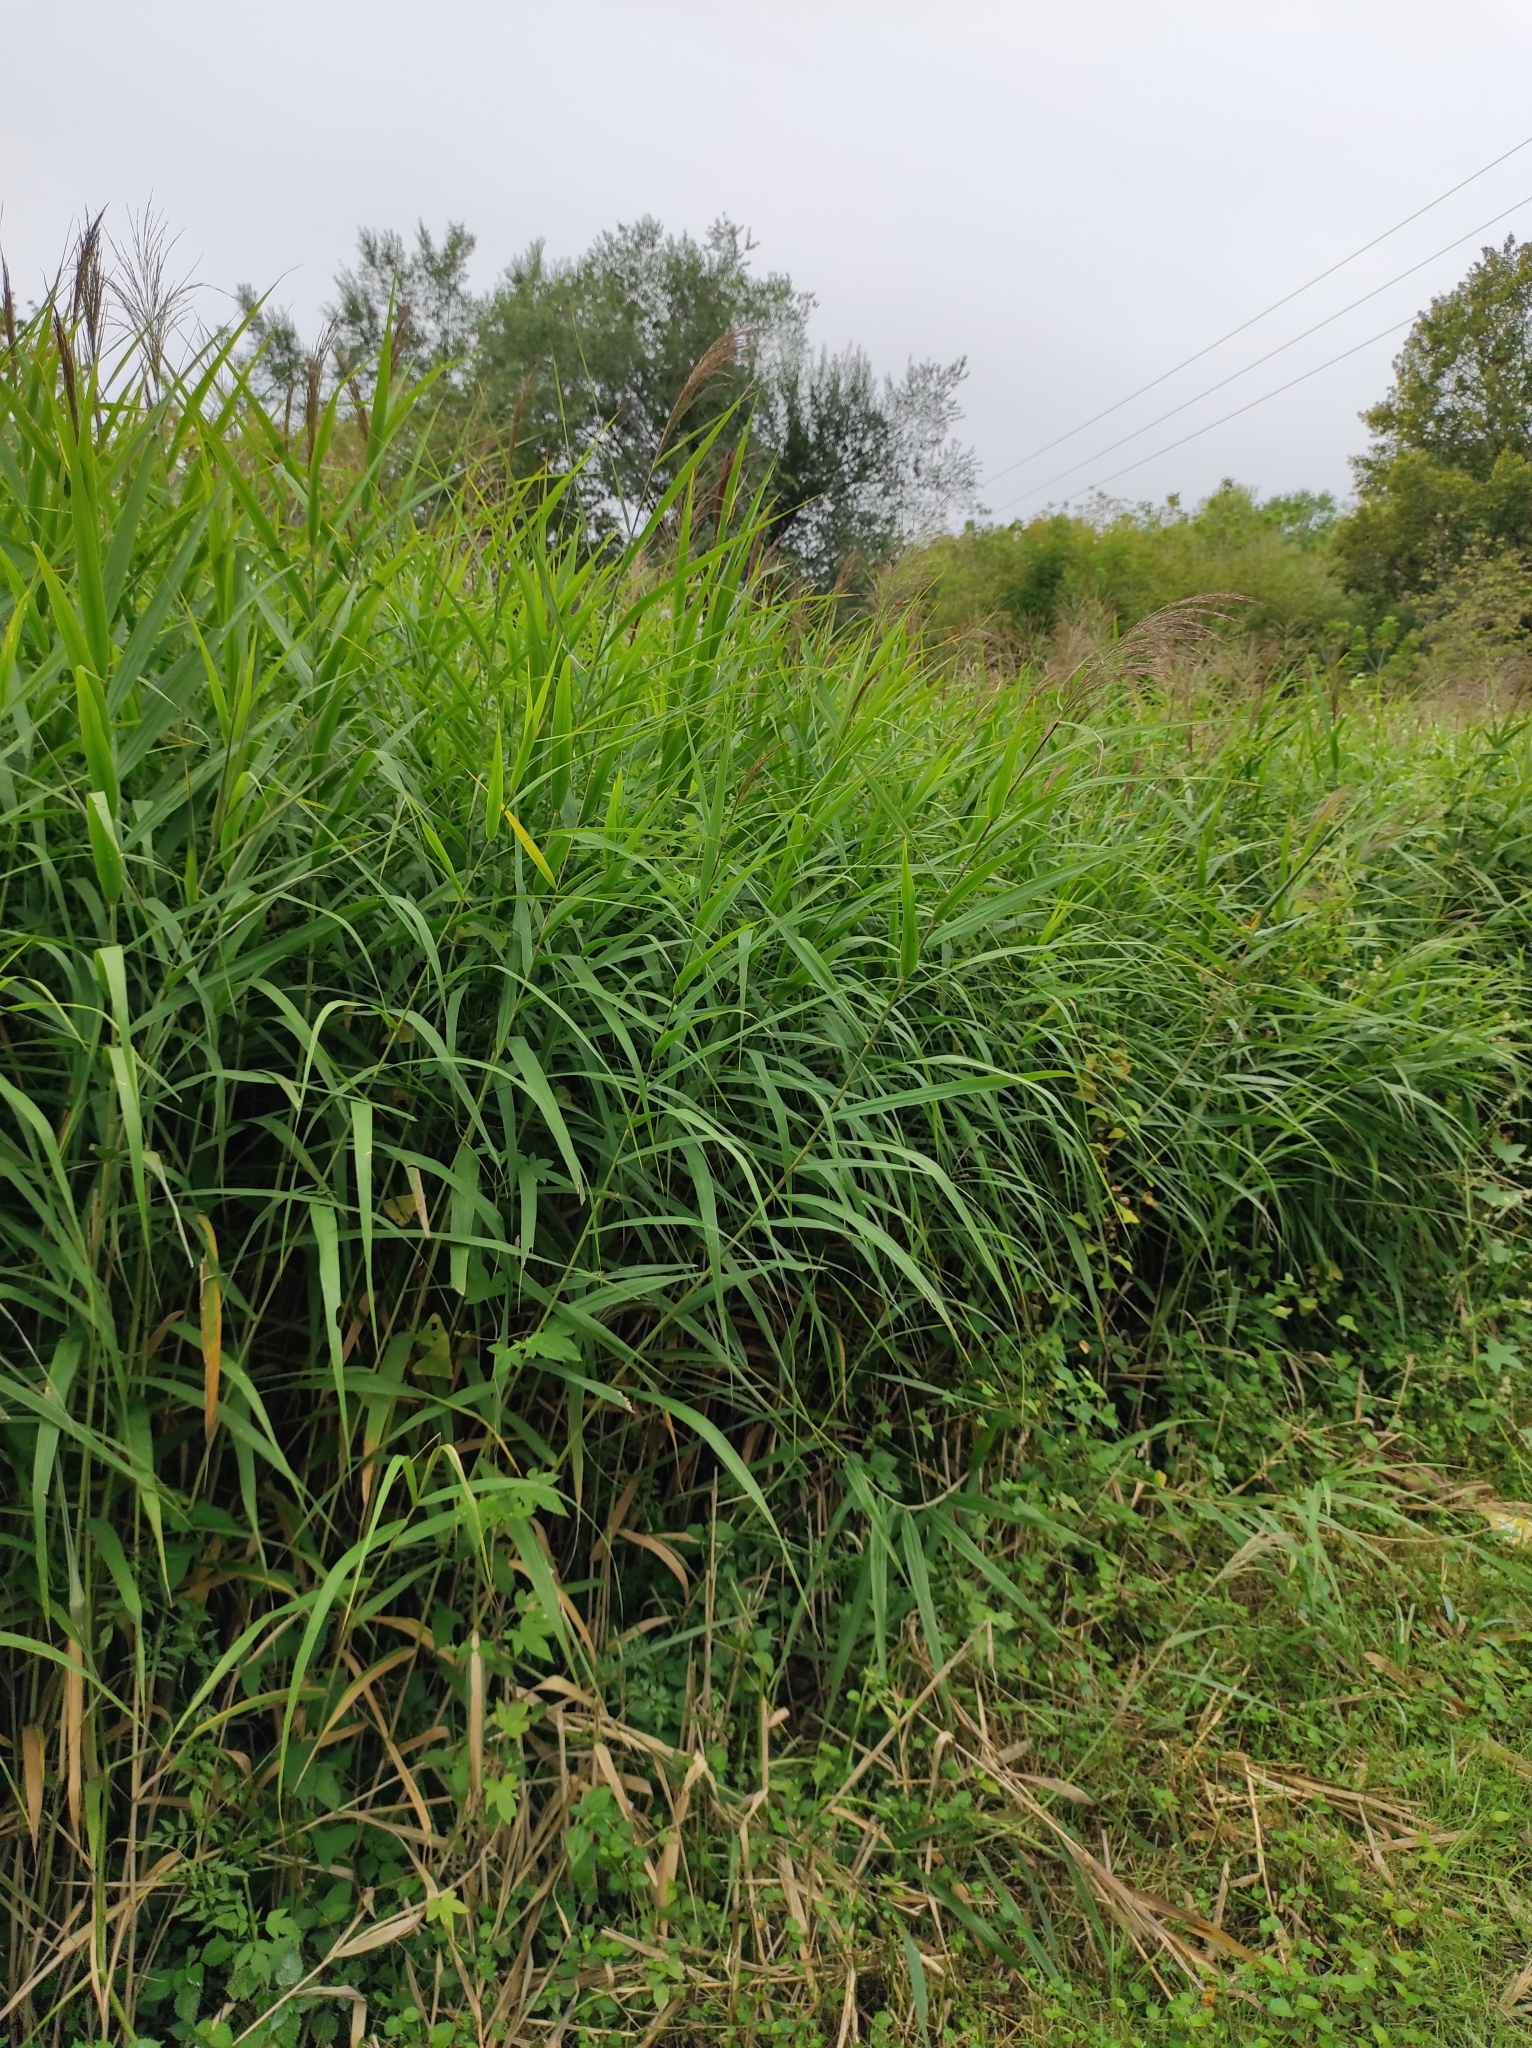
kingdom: Plantae
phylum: Tracheophyta
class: Liliopsida
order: Poales
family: Poaceae
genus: Phragmites
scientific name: Phragmites australis
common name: Common reed
